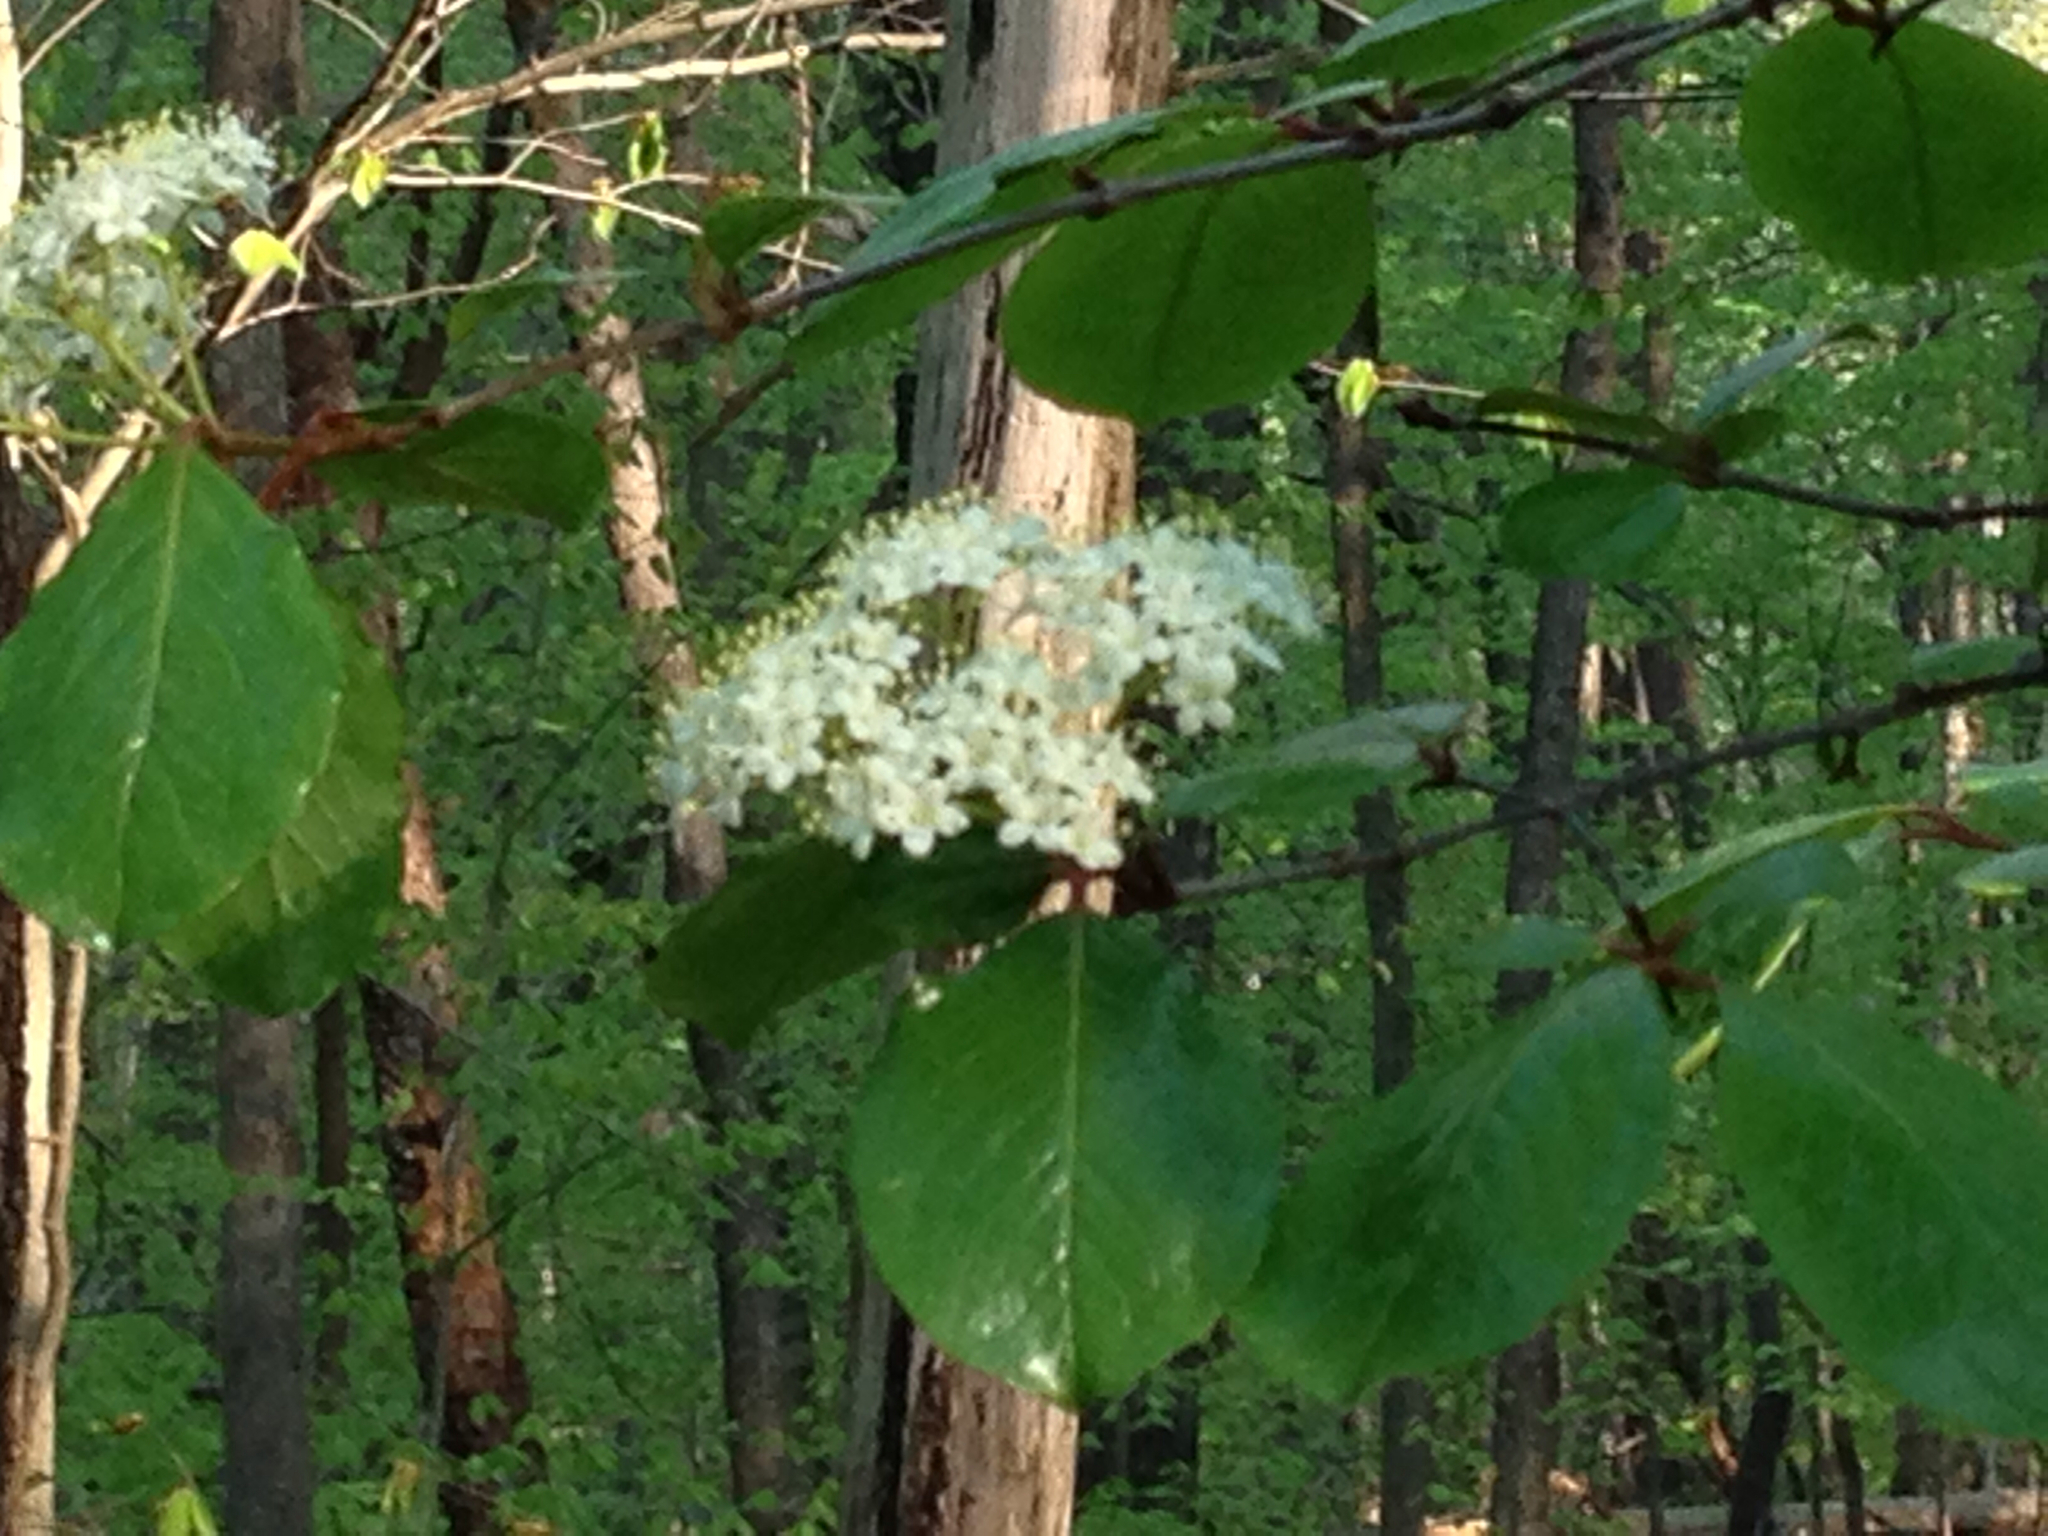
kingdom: Plantae
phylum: Tracheophyta
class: Magnoliopsida
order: Dipsacales
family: Viburnaceae
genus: Viburnum
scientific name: Viburnum rufidulum
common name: Blue haw
